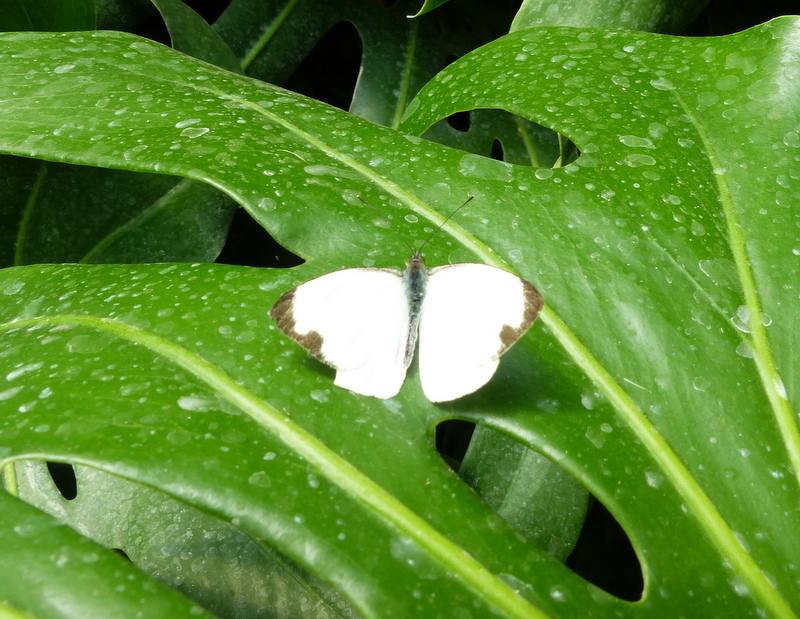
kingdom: Animalia
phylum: Arthropoda
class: Insecta
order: Lepidoptera
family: Pieridae
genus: Leptophobia
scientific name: Leptophobia aripa
